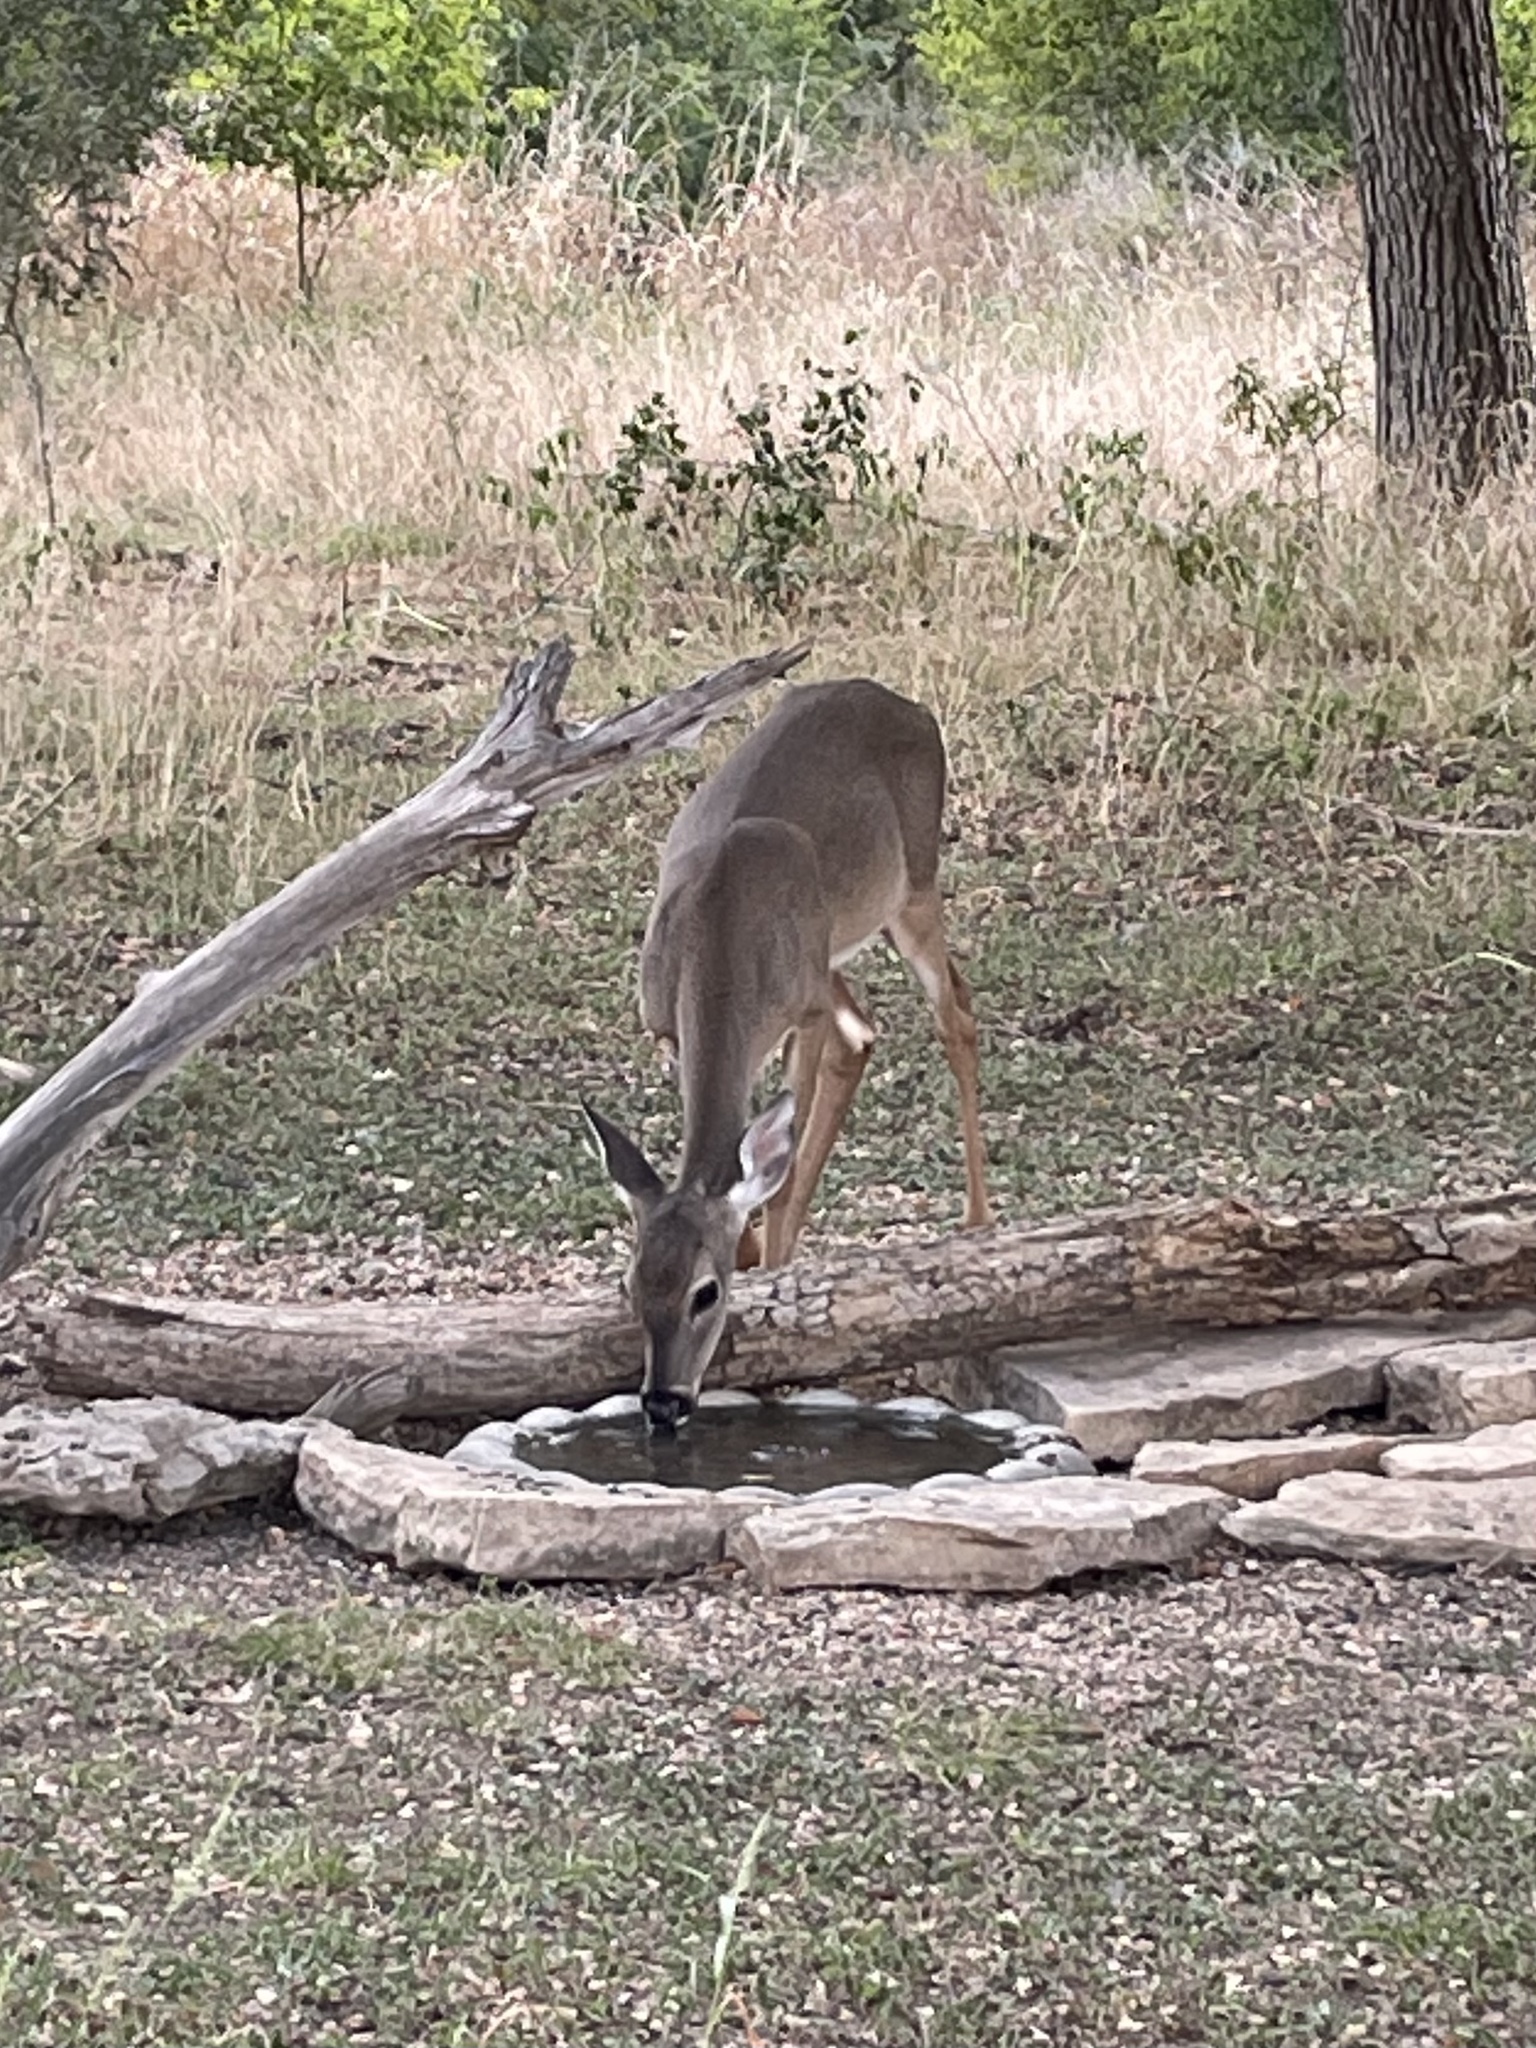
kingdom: Animalia
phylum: Chordata
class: Mammalia
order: Artiodactyla
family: Cervidae
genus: Odocoileus
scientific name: Odocoileus virginianus
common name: White-tailed deer
